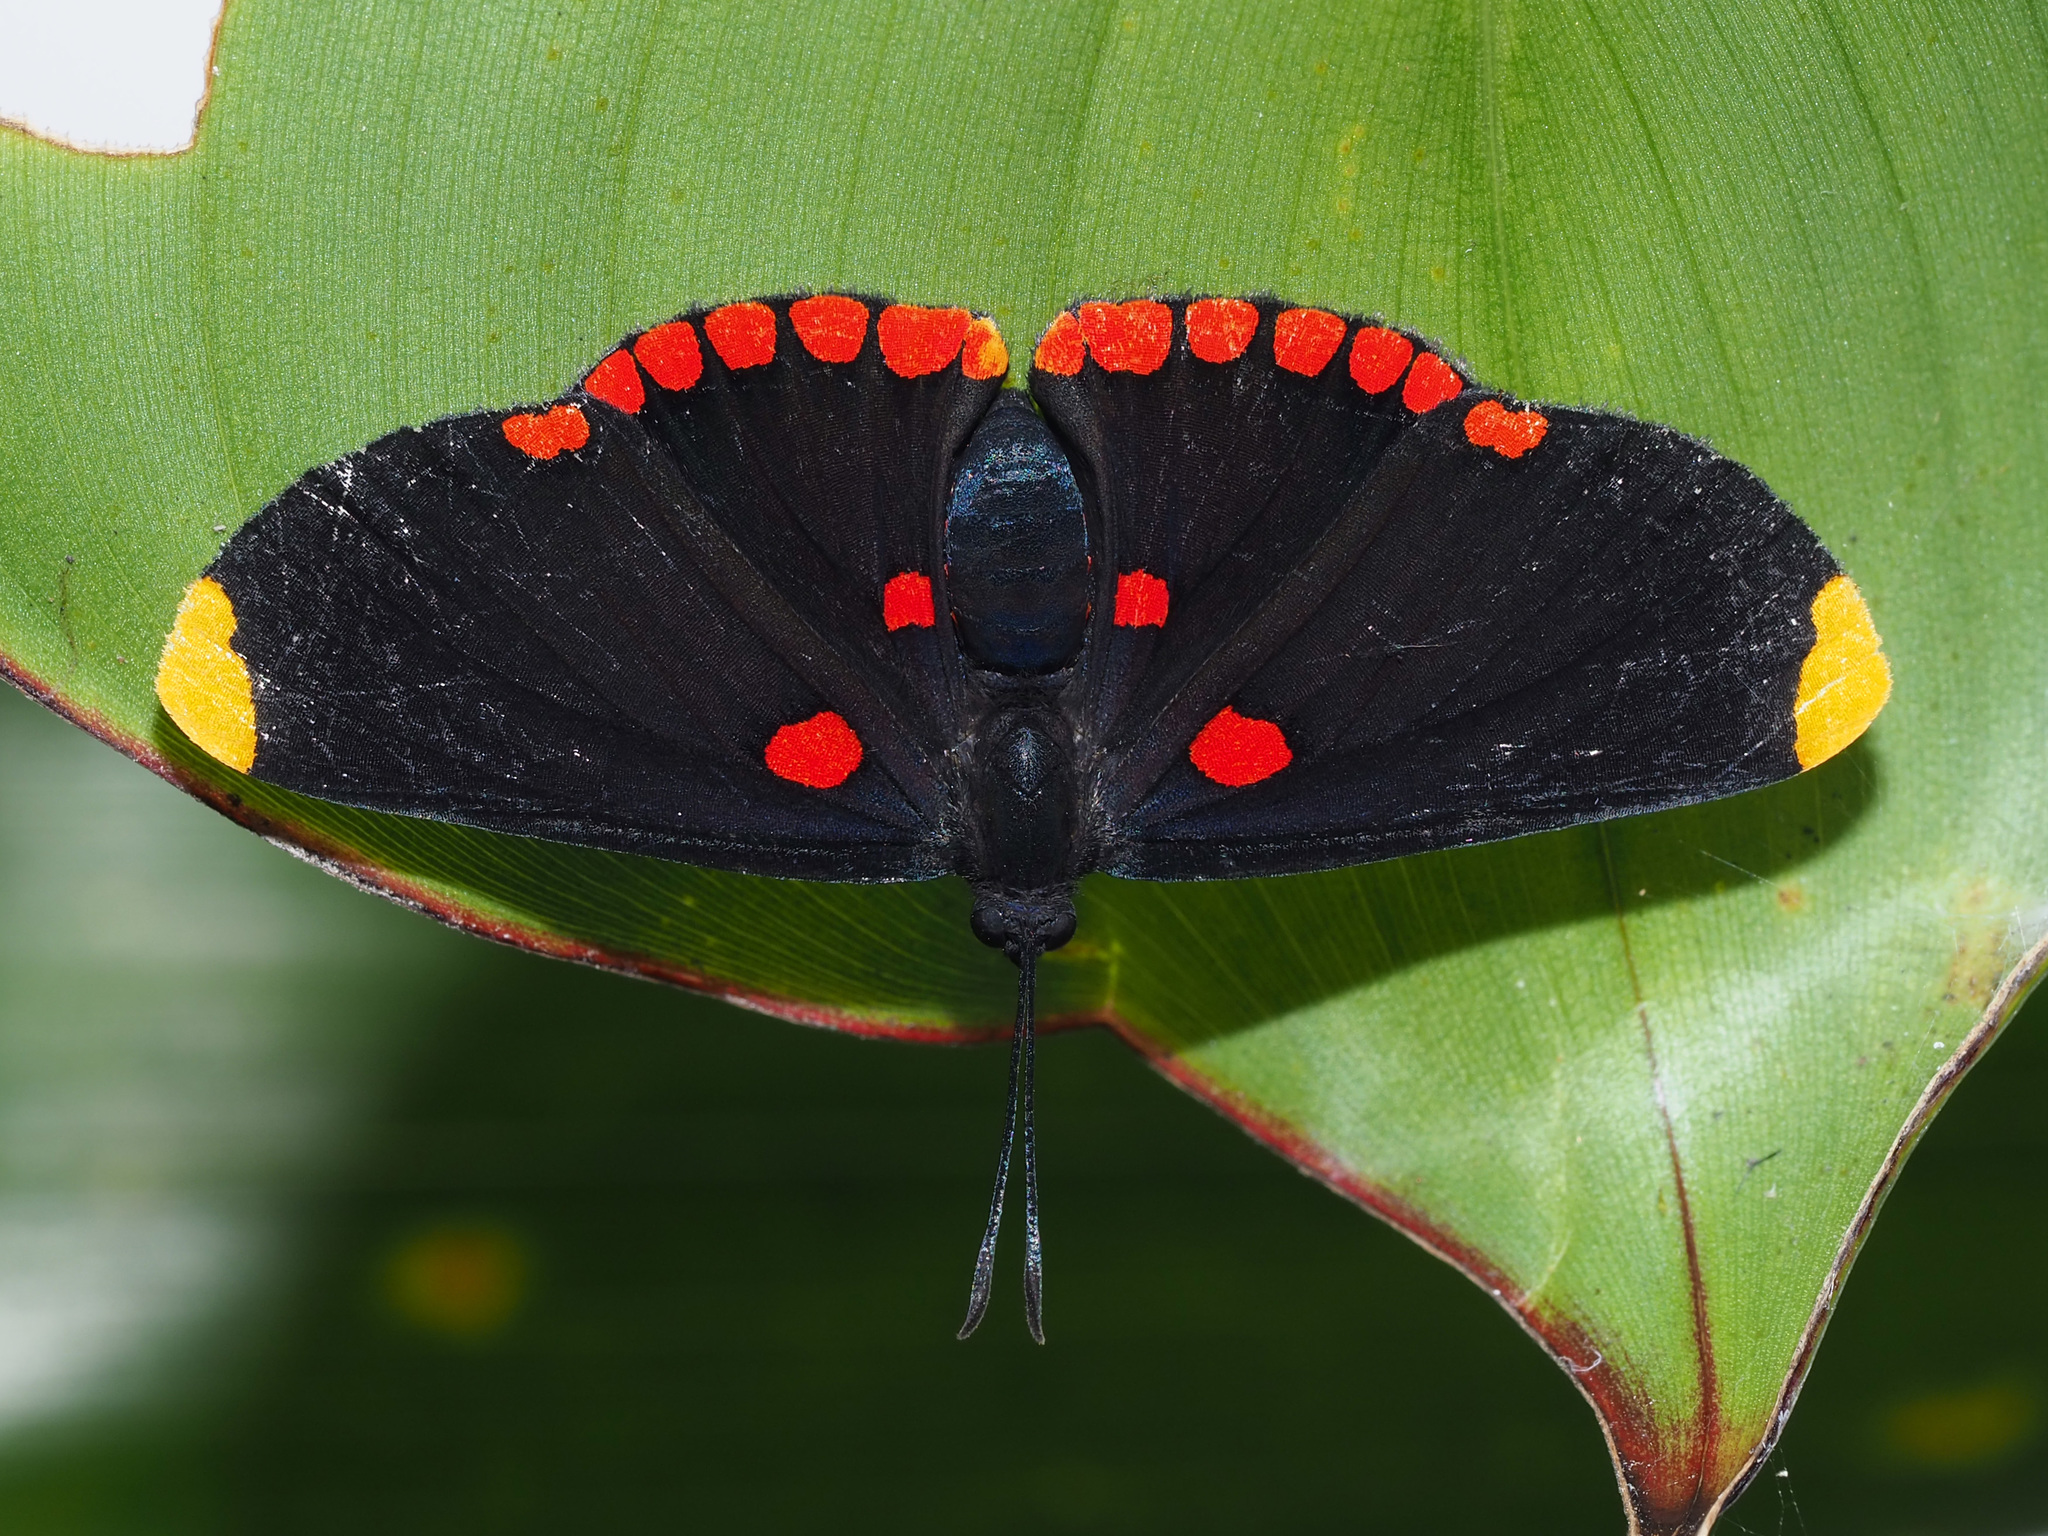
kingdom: Animalia
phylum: Arthropoda
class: Insecta
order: Lepidoptera
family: Lycaenidae
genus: Melanis
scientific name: Melanis pixe
